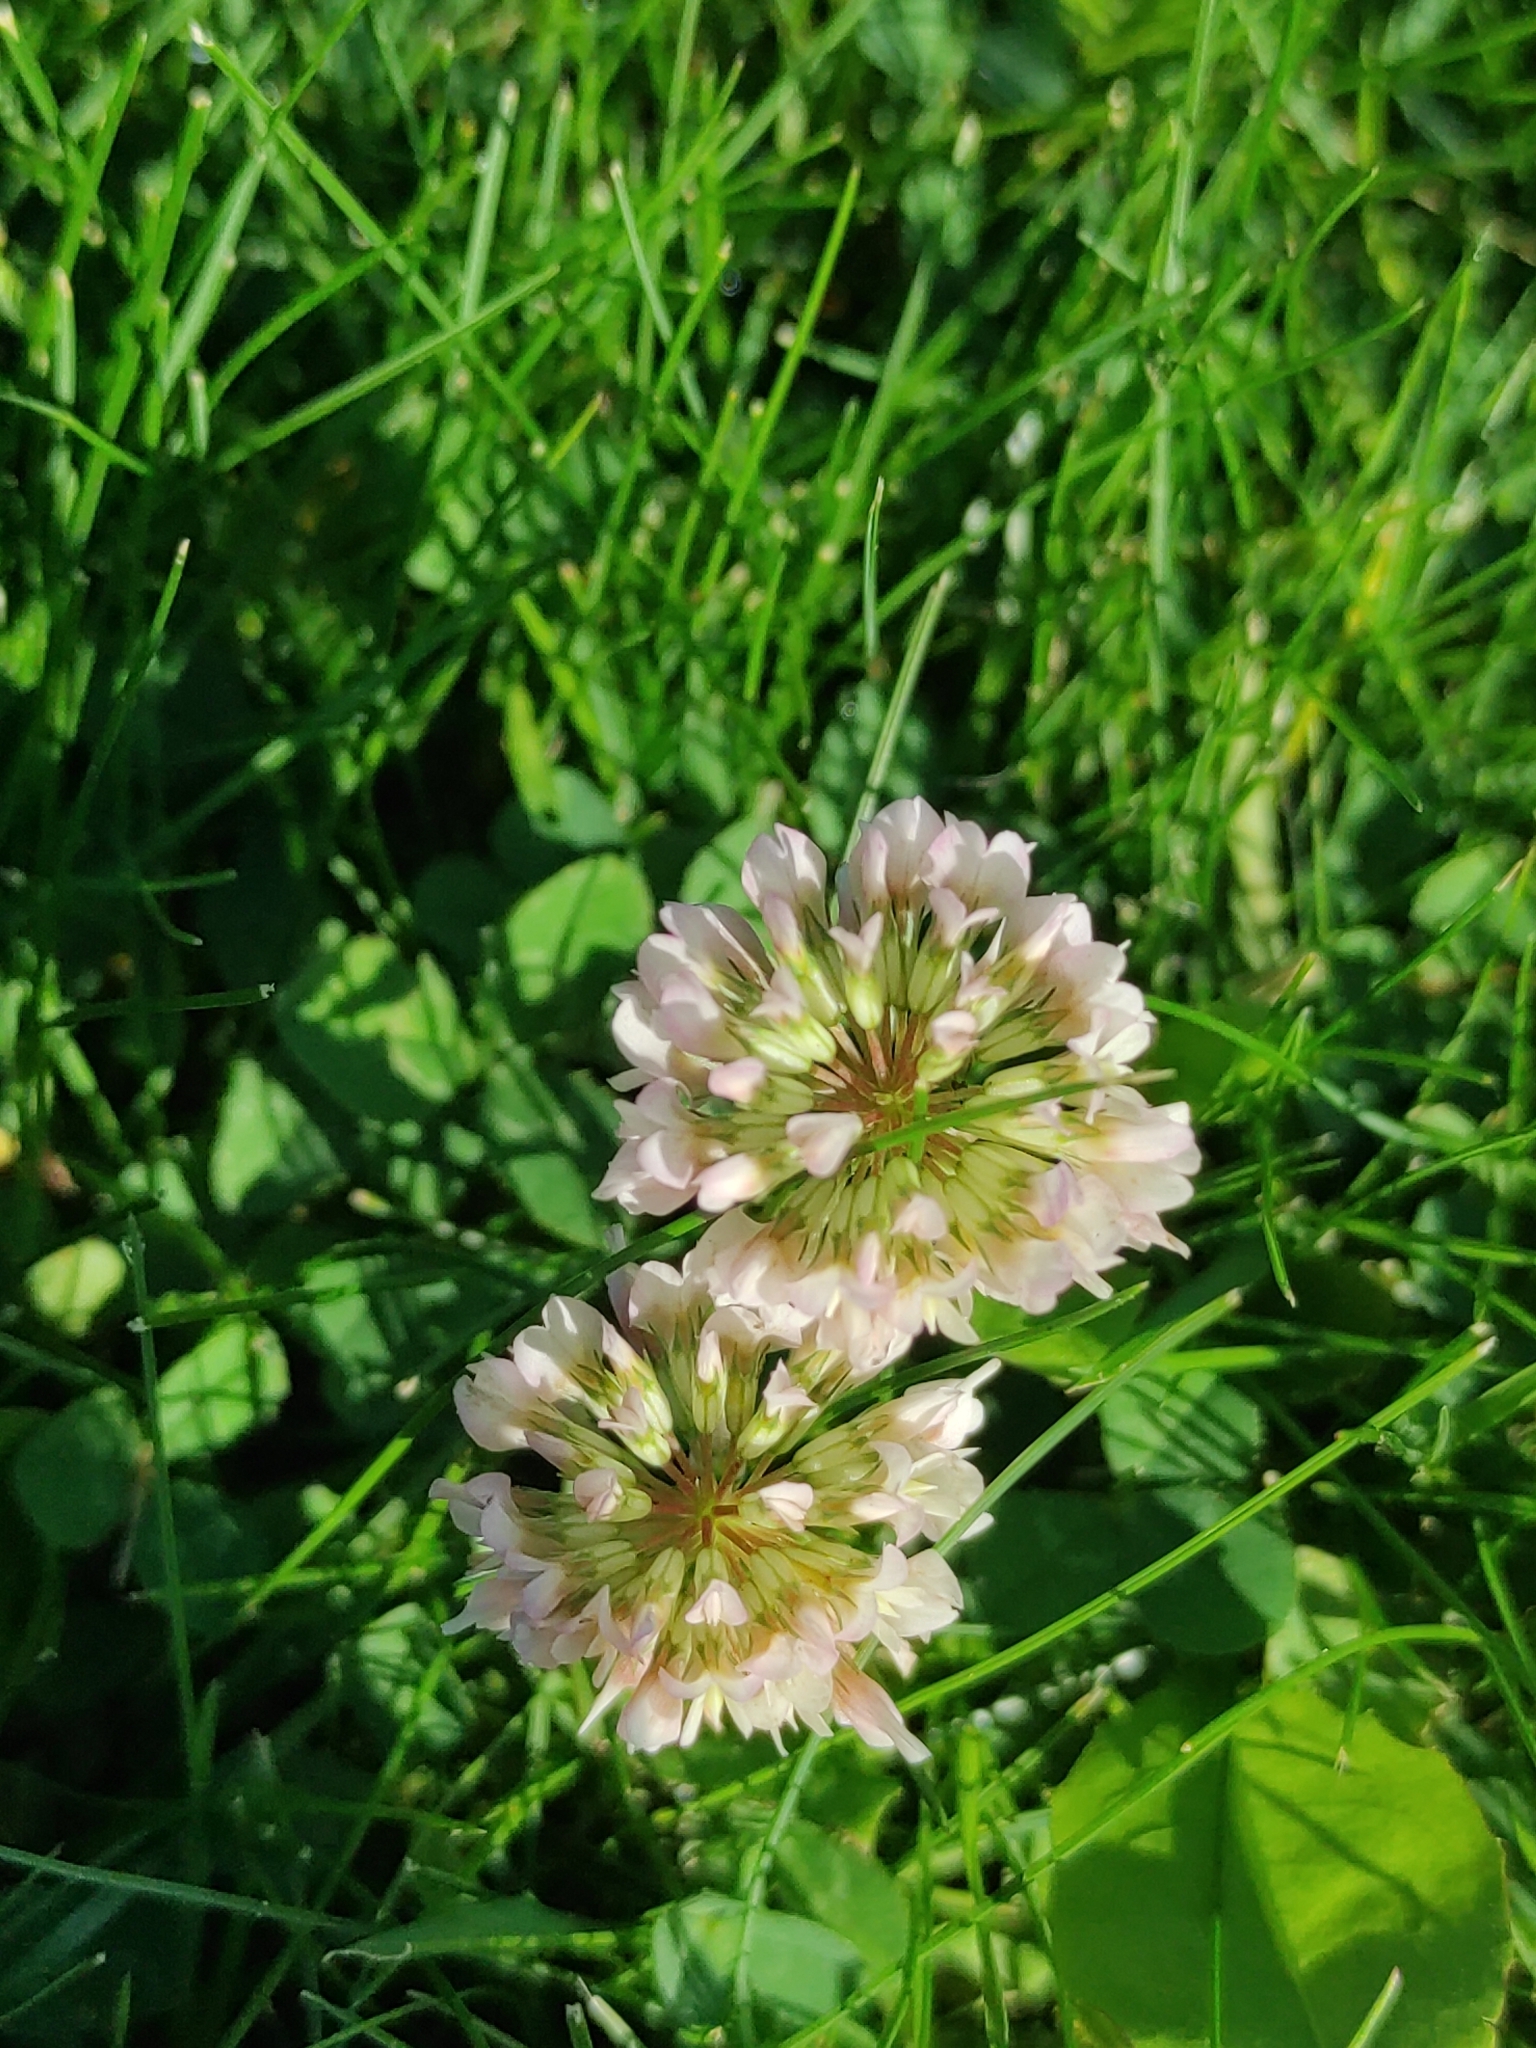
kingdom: Plantae
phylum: Tracheophyta
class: Magnoliopsida
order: Fabales
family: Fabaceae
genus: Trifolium
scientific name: Trifolium repens
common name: White clover
